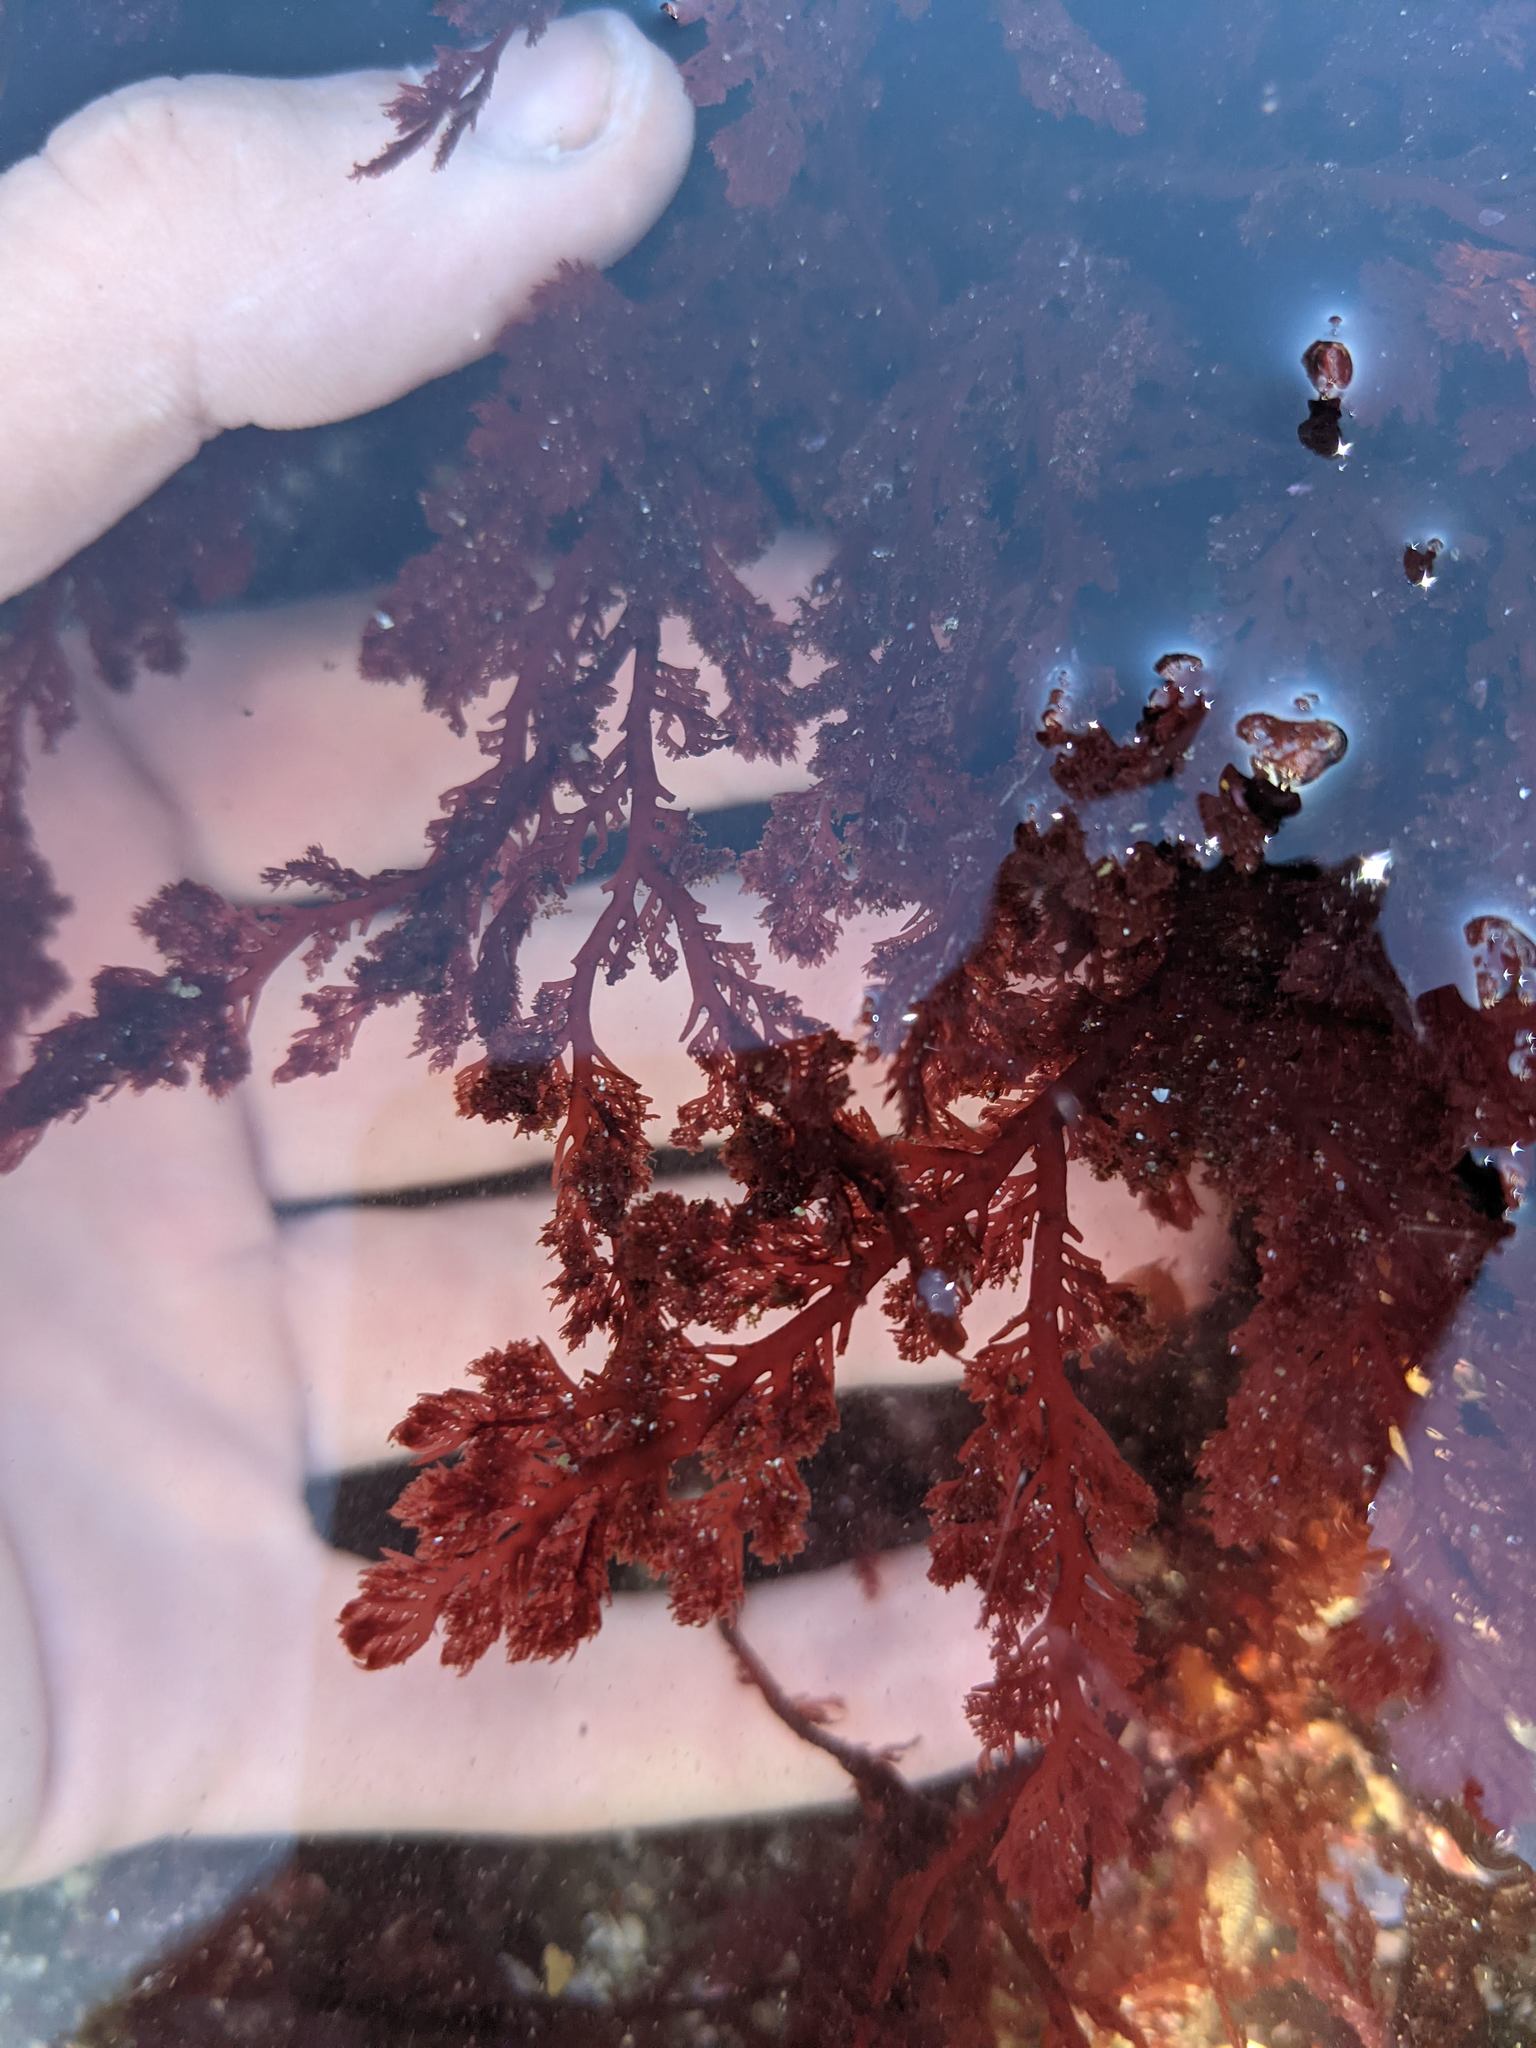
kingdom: Plantae
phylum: Rhodophyta
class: Florideophyceae
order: Plocamiales
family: Plocamiaceae
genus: Plocamium
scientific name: Plocamium cartilagineum
